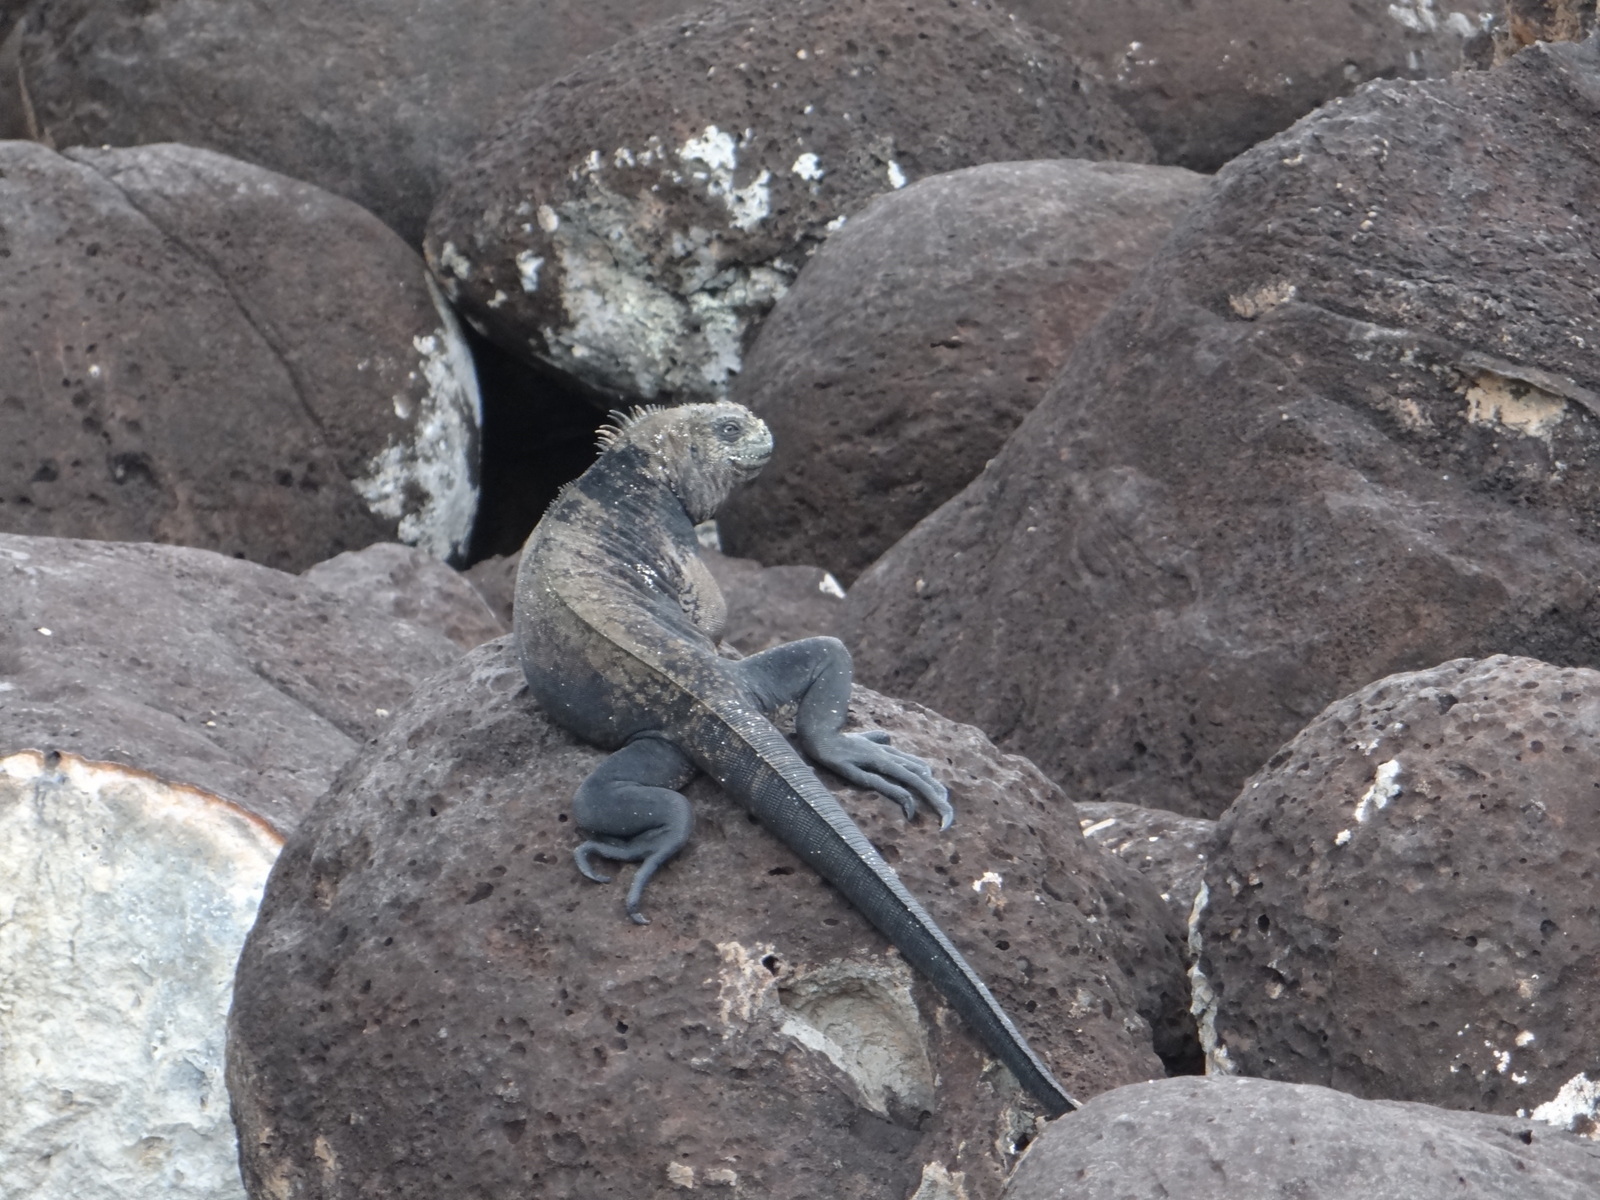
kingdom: Animalia
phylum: Chordata
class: Squamata
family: Iguanidae
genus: Amblyrhynchus
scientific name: Amblyrhynchus cristatus
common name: Marine iguana
